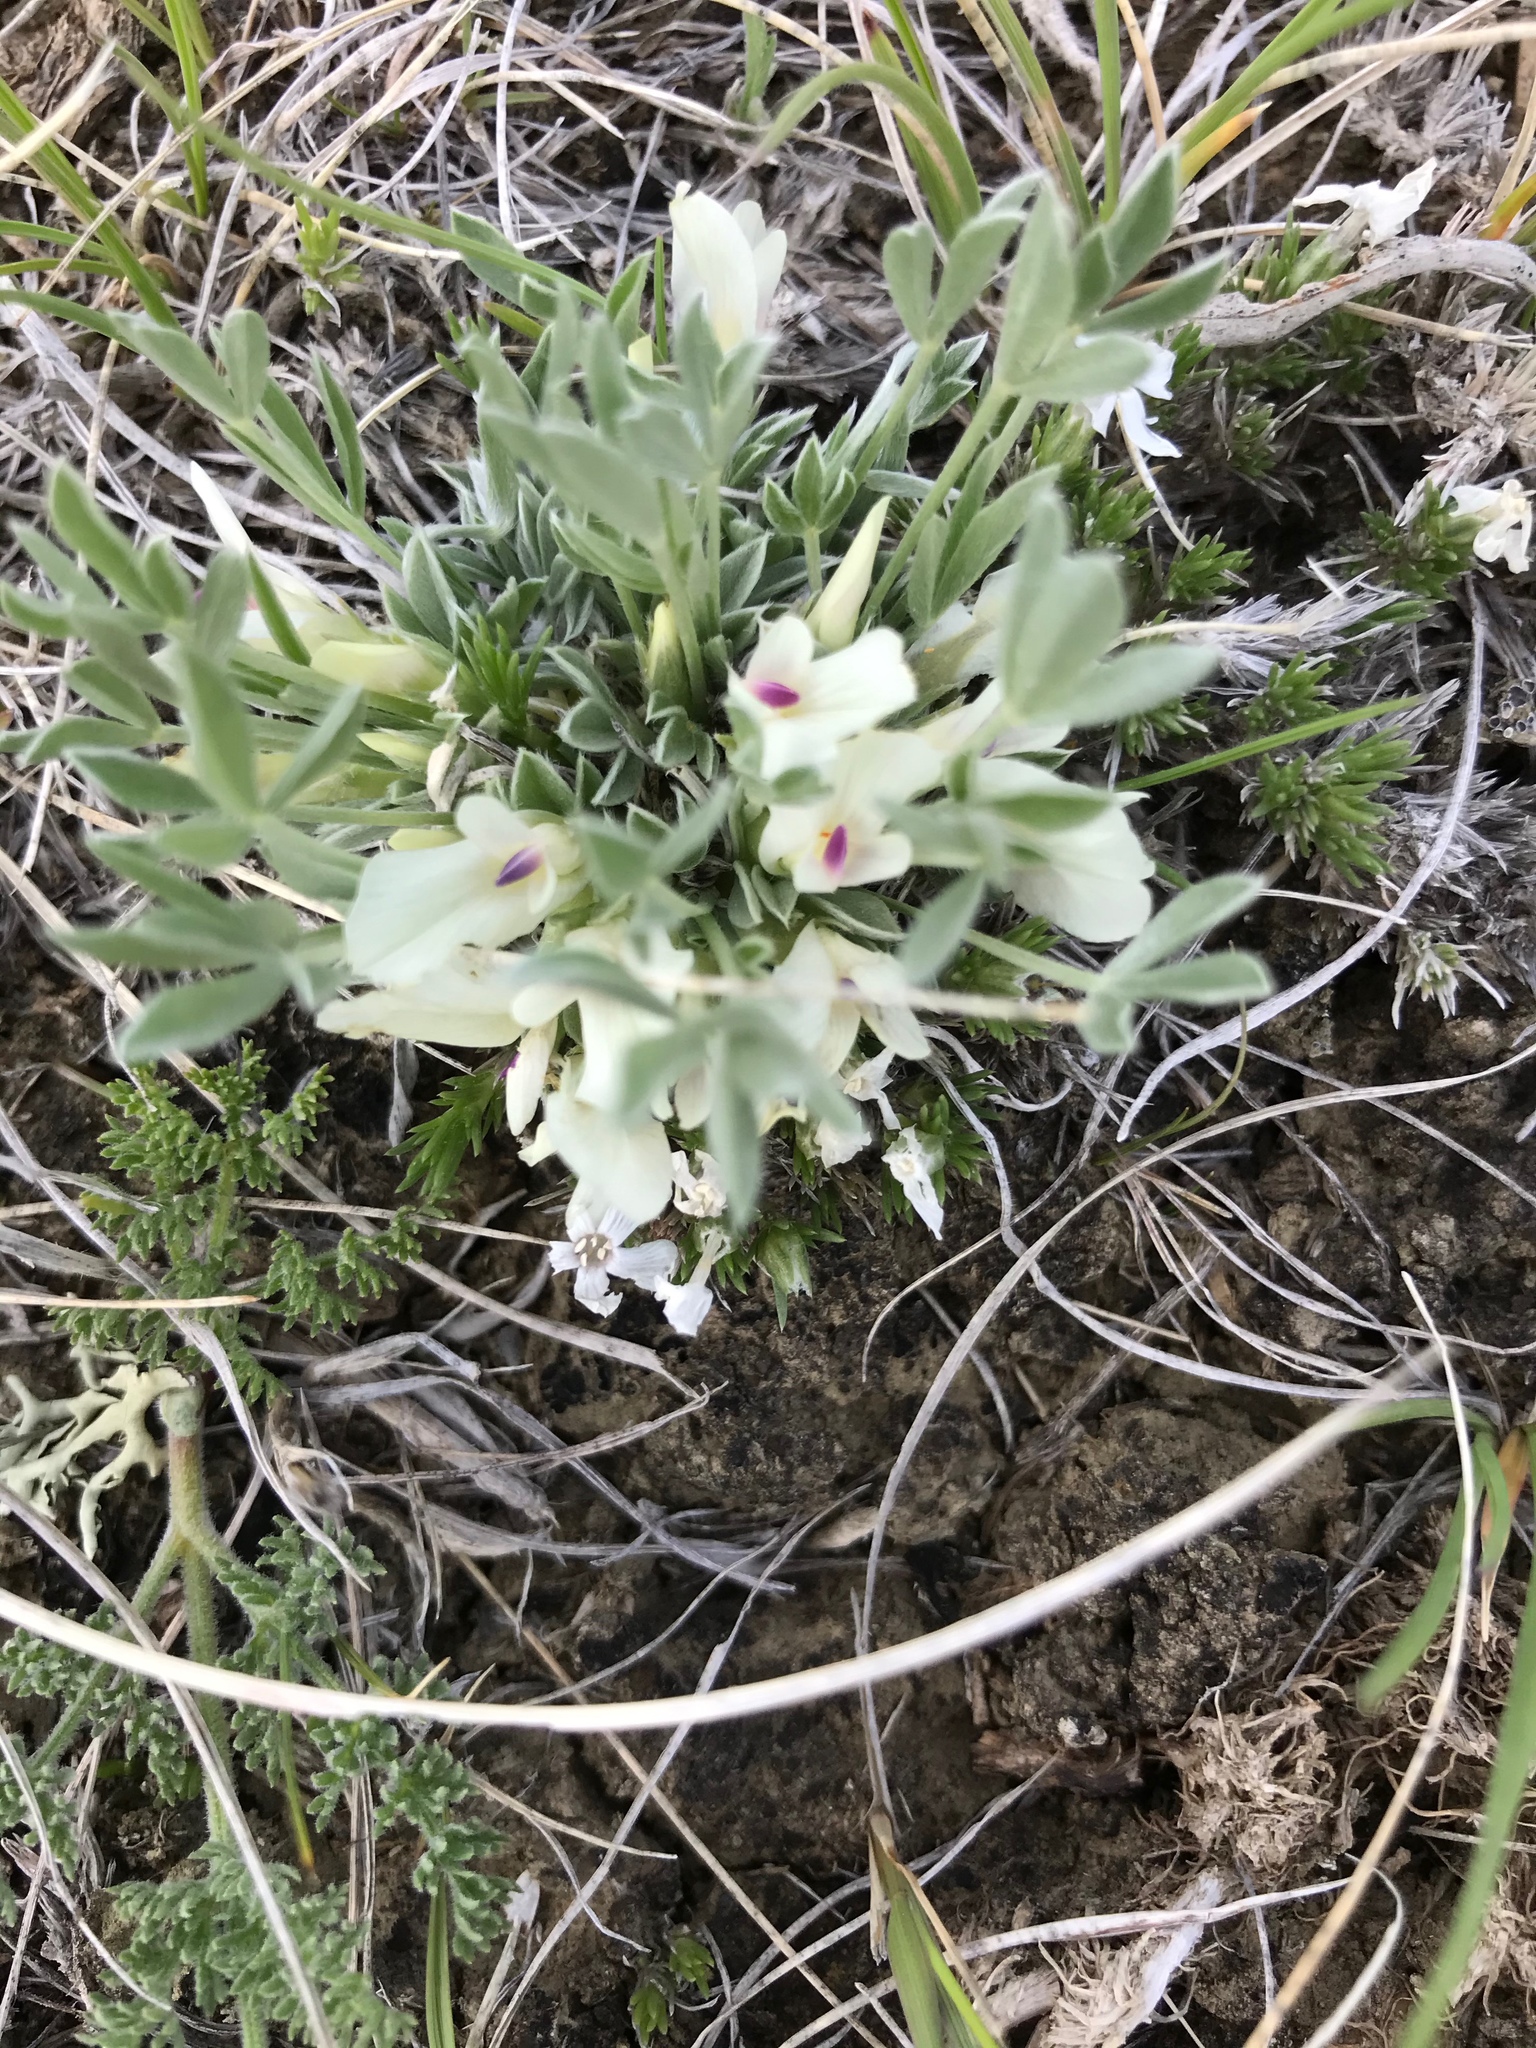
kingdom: Plantae
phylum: Tracheophyta
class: Magnoliopsida
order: Fabales
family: Fabaceae
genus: Astragalus
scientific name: Astragalus gilviflorus
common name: Cushion milk-vetch
